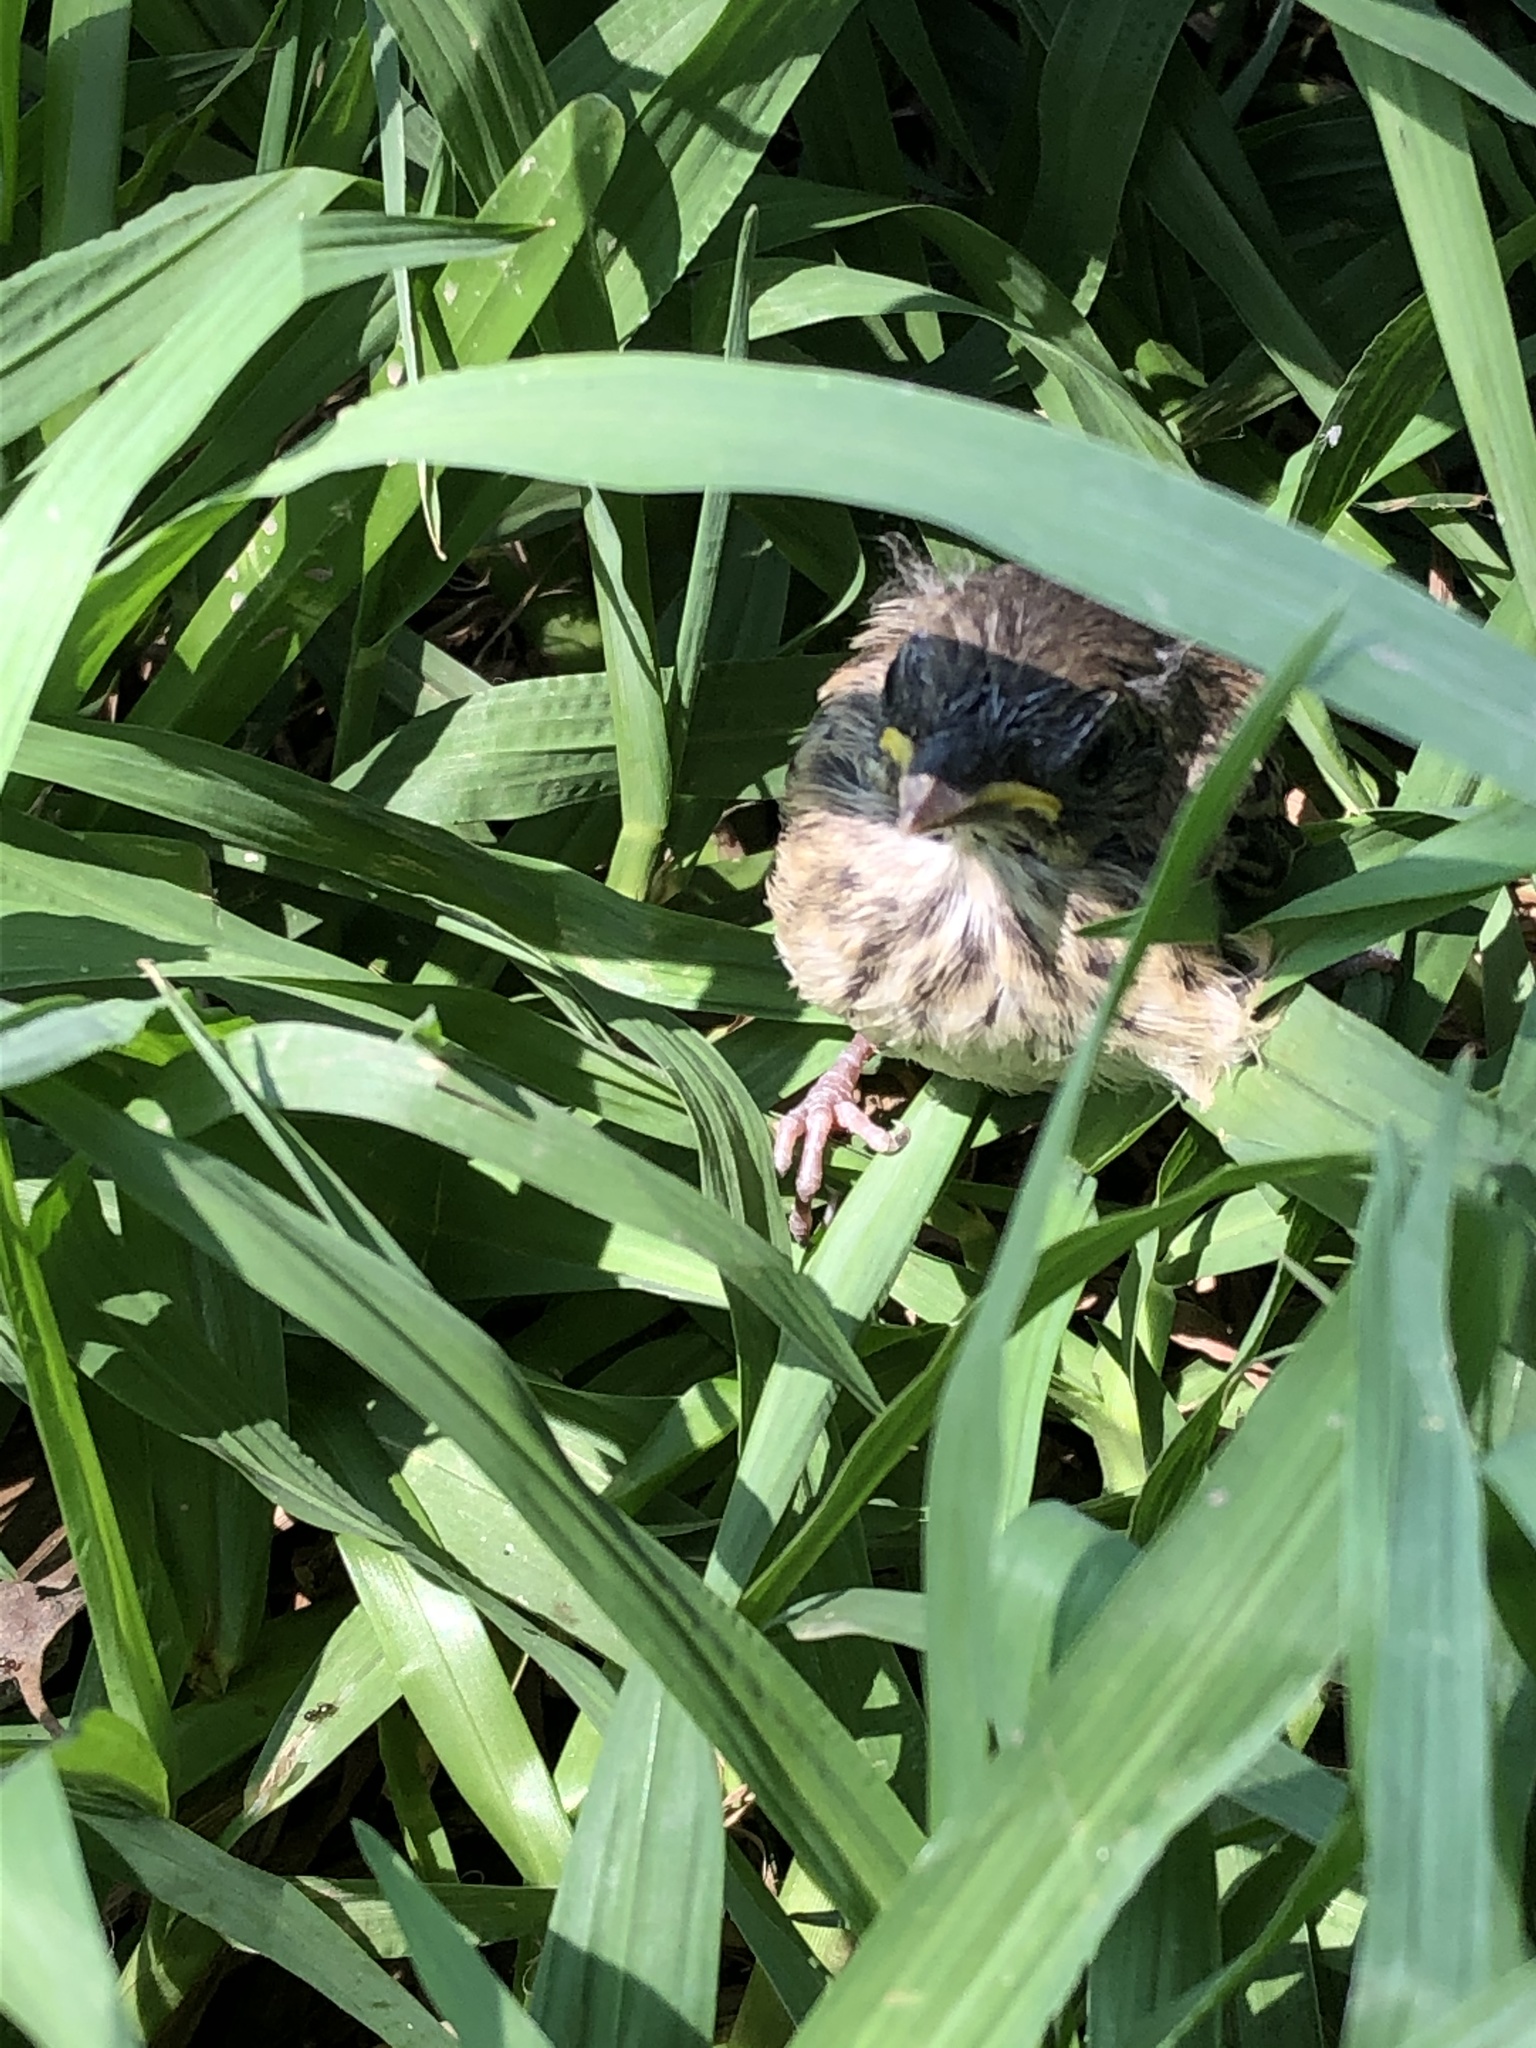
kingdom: Animalia
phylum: Chordata
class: Aves
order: Passeriformes
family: Passerellidae
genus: Zonotrichia
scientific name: Zonotrichia capensis
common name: Rufous-collared sparrow
